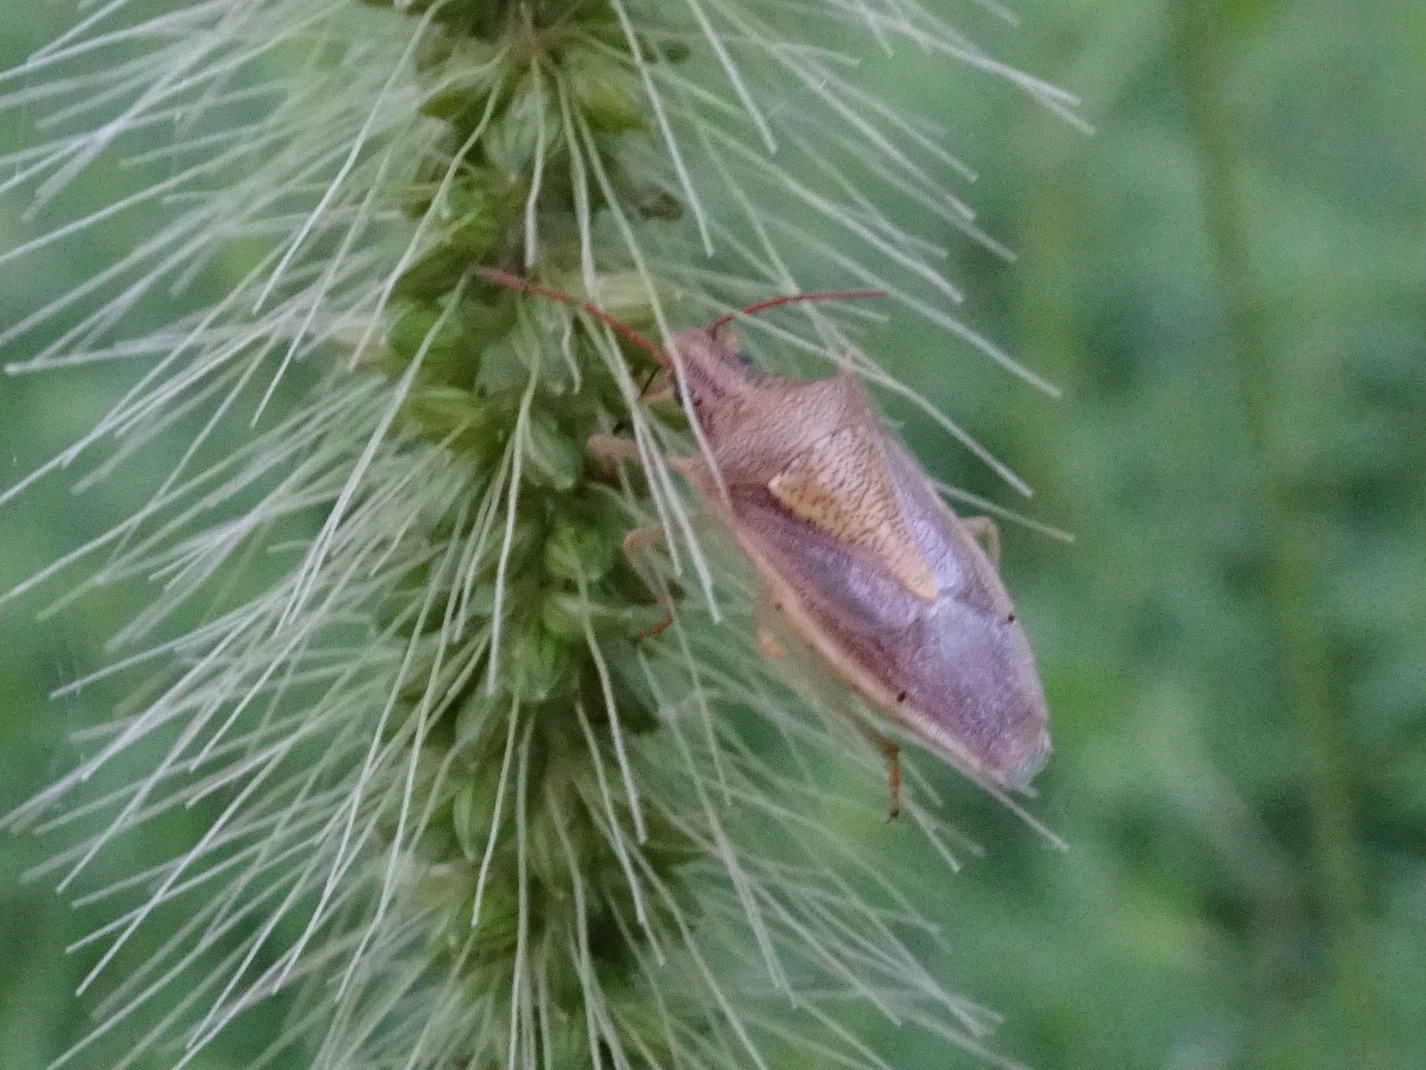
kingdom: Animalia
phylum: Arthropoda
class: Insecta
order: Hemiptera
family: Pentatomidae
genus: Oebalus
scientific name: Oebalus pugnax
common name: Rice stink bug
